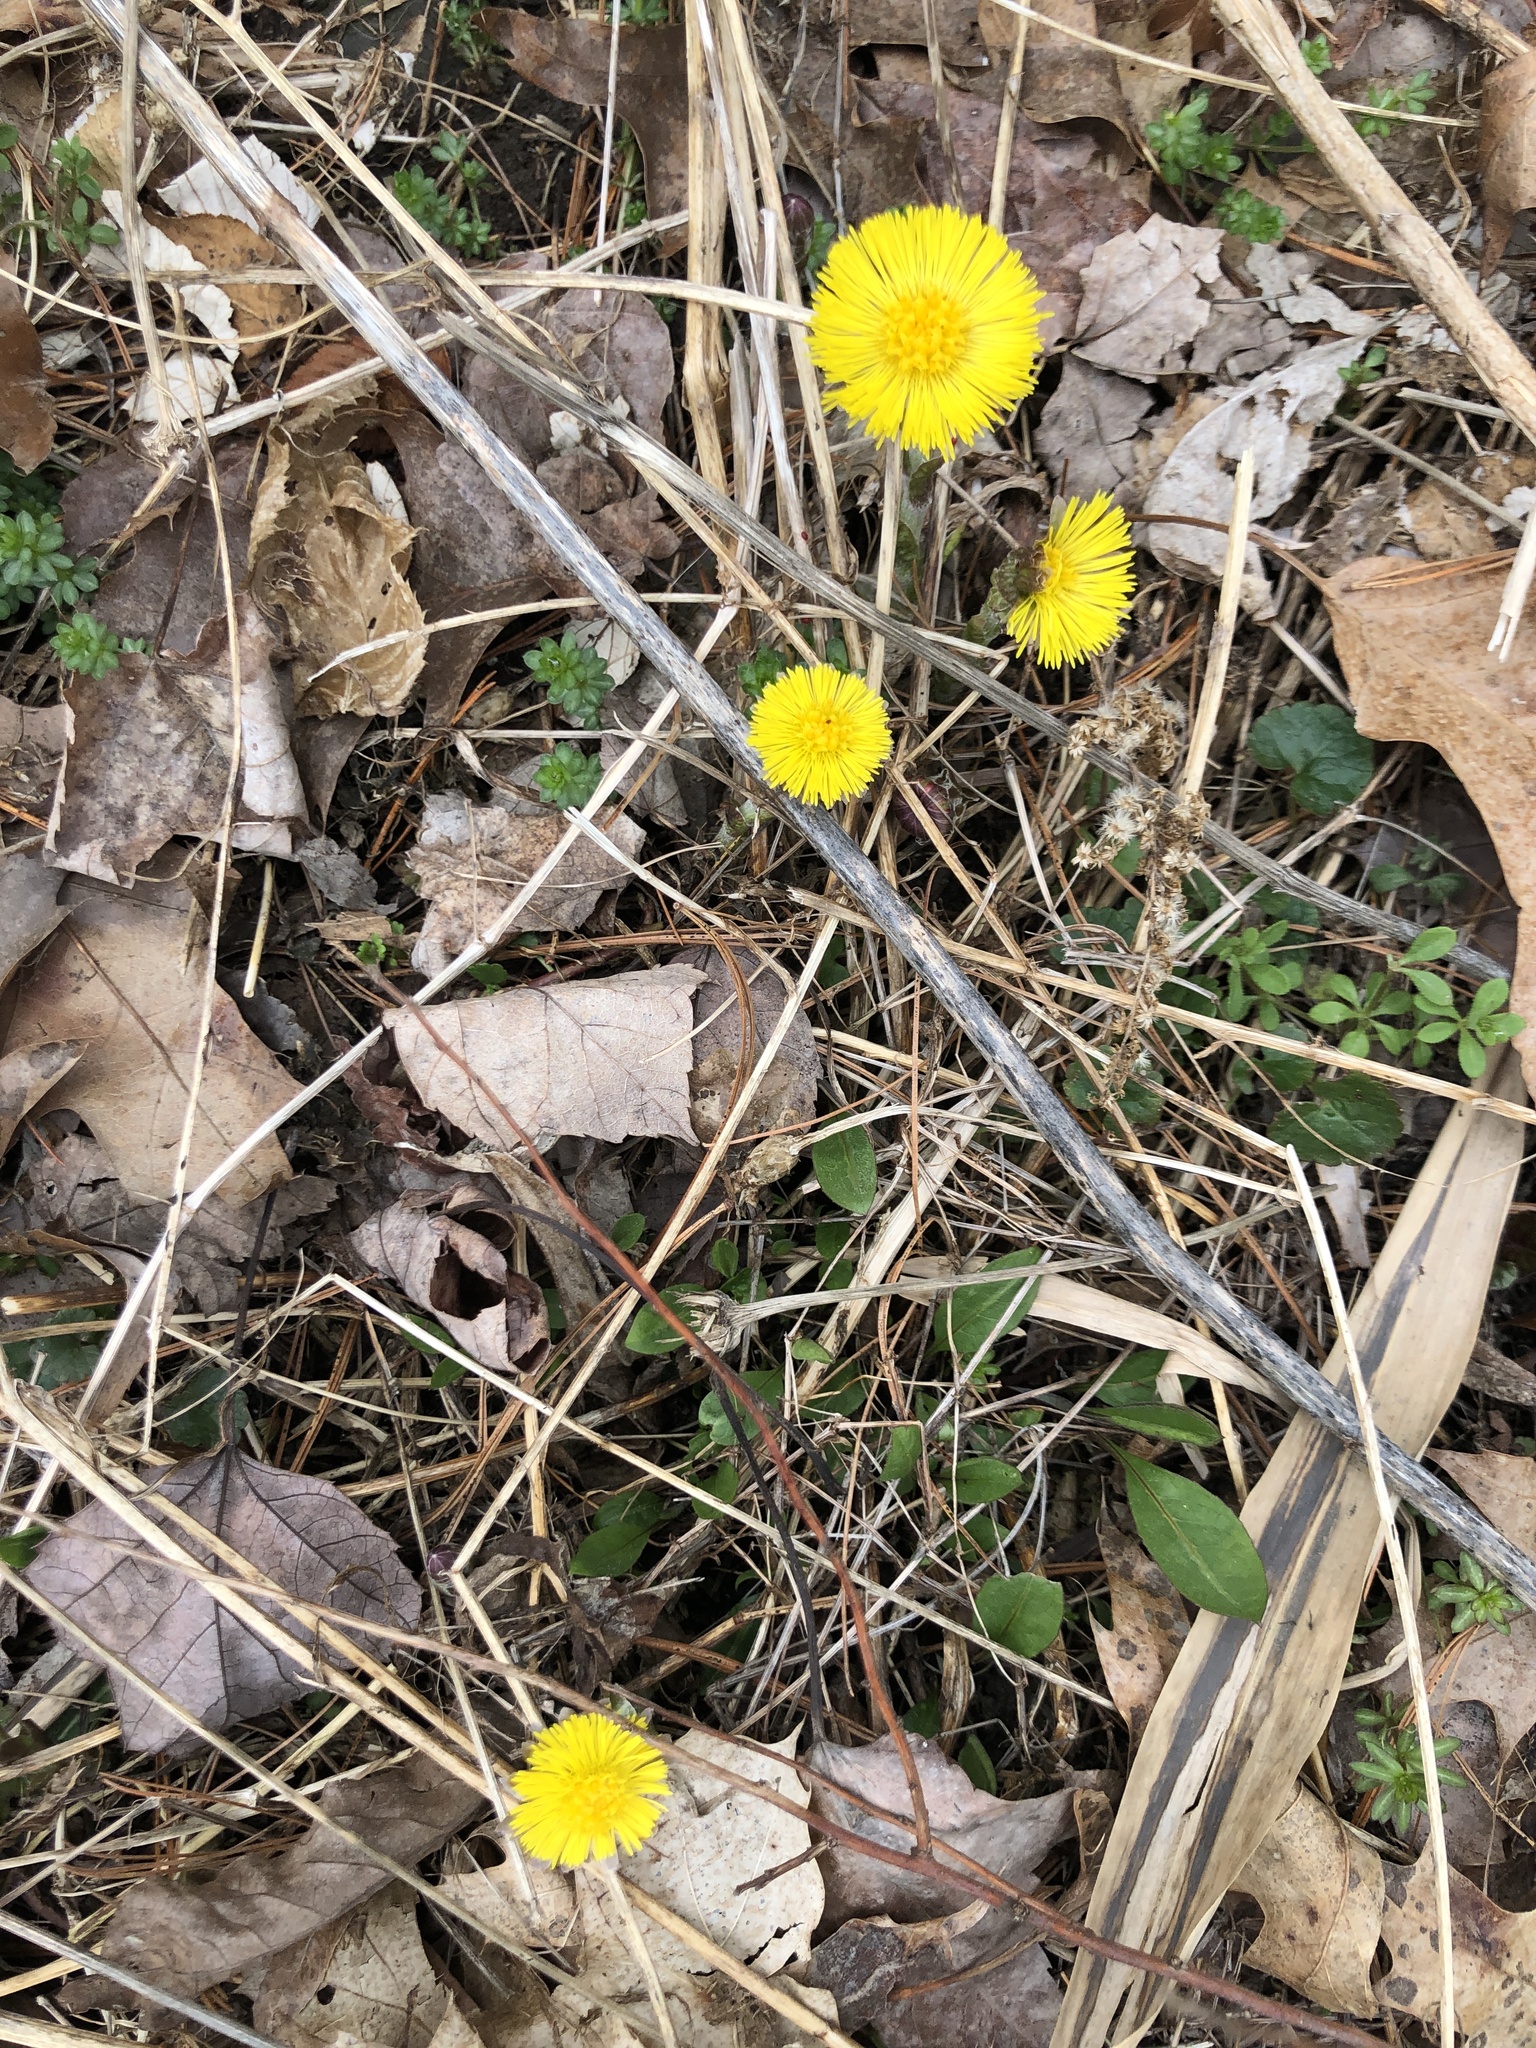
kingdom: Plantae
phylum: Tracheophyta
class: Magnoliopsida
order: Asterales
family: Asteraceae
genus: Tussilago
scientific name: Tussilago farfara
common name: Coltsfoot
